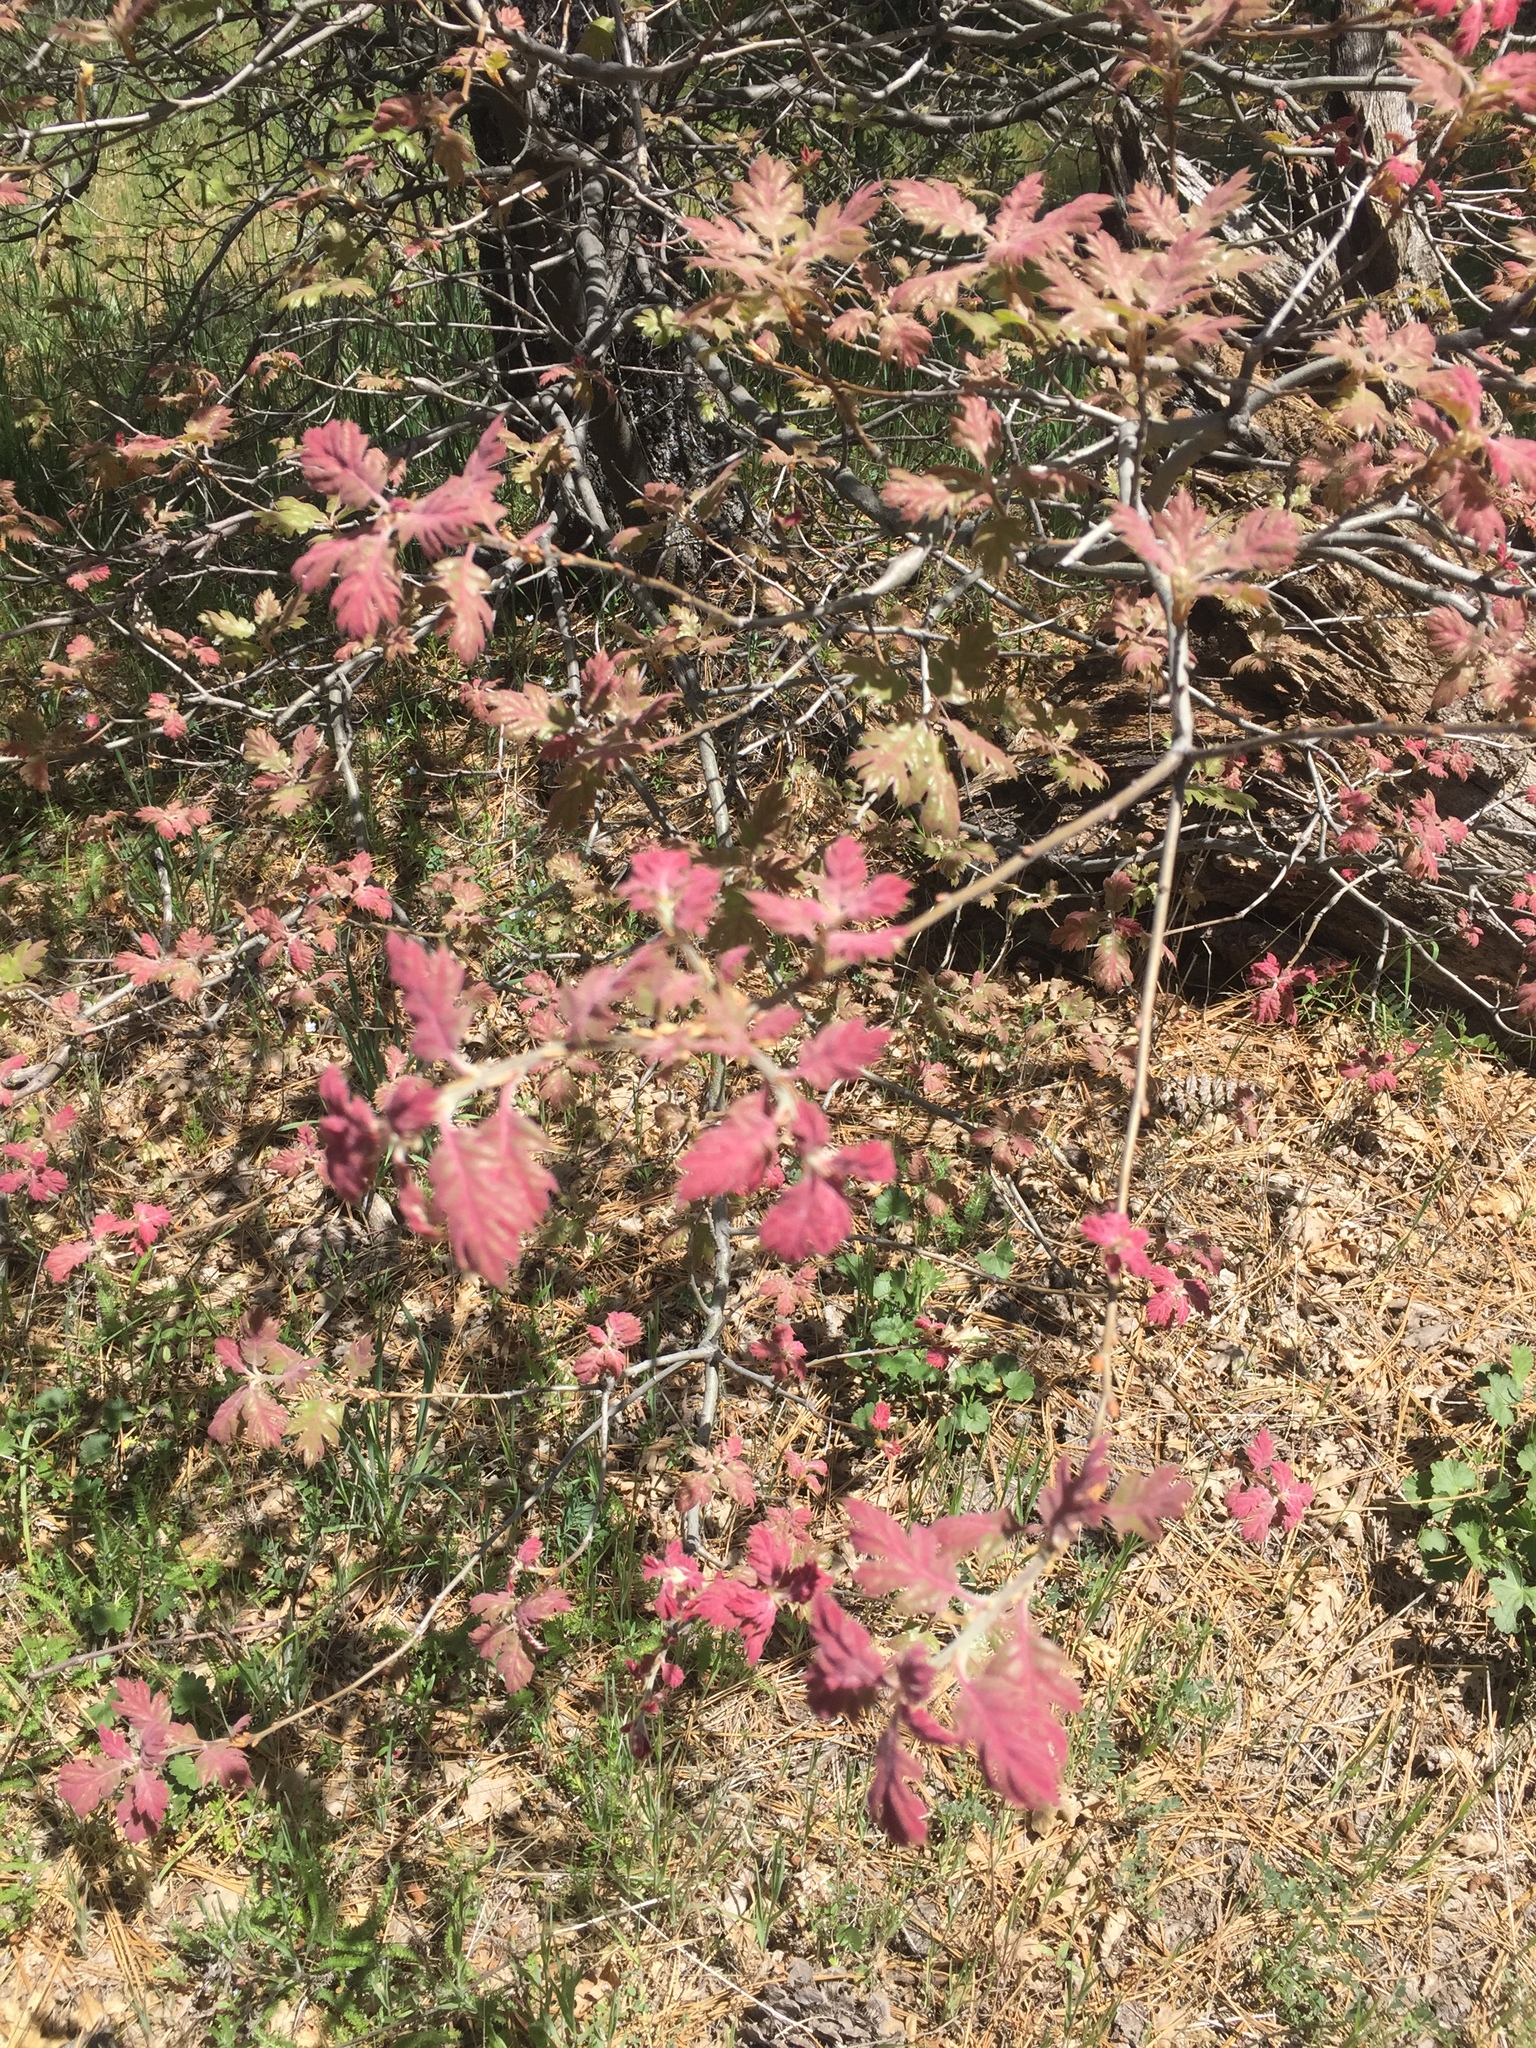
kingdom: Plantae
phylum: Tracheophyta
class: Magnoliopsida
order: Fagales
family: Fagaceae
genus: Quercus
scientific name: Quercus kelloggii
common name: California black oak
